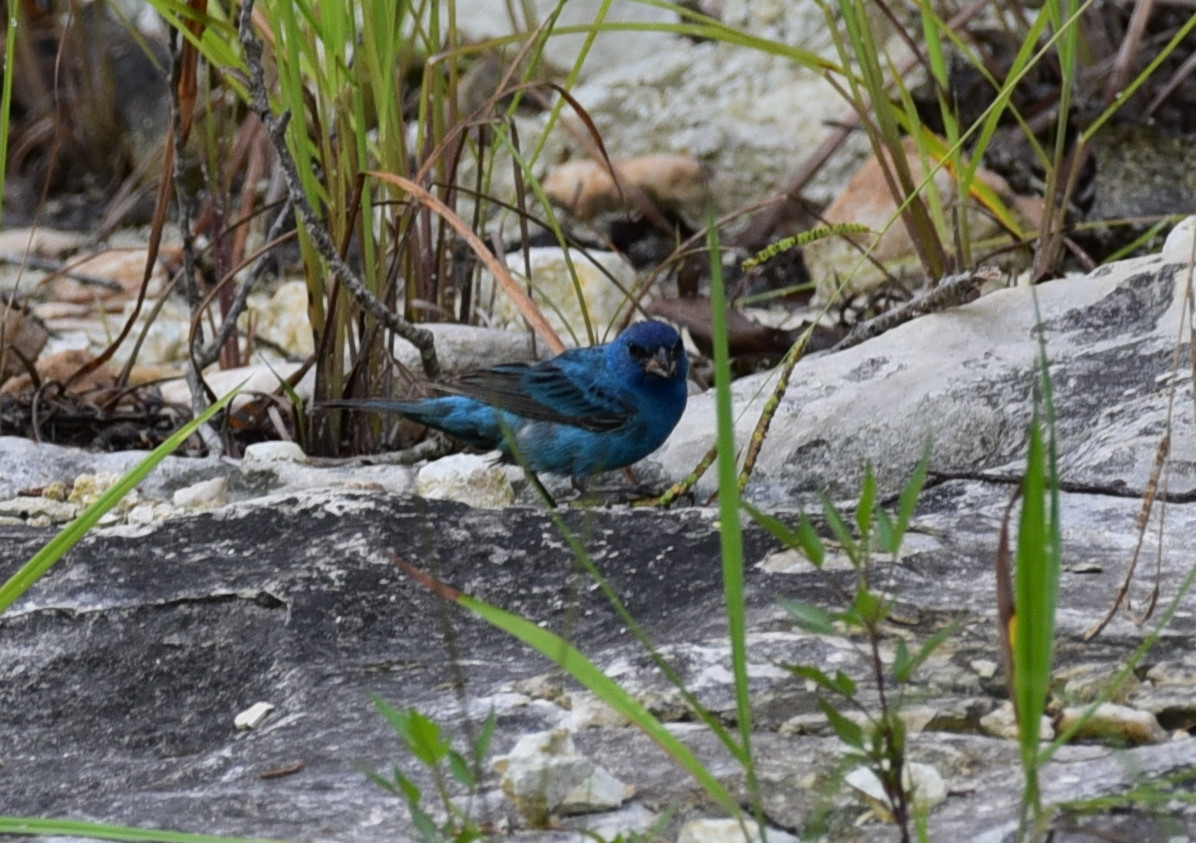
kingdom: Animalia
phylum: Chordata
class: Aves
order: Passeriformes
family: Cardinalidae
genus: Passerina
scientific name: Passerina cyanea
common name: Indigo bunting
